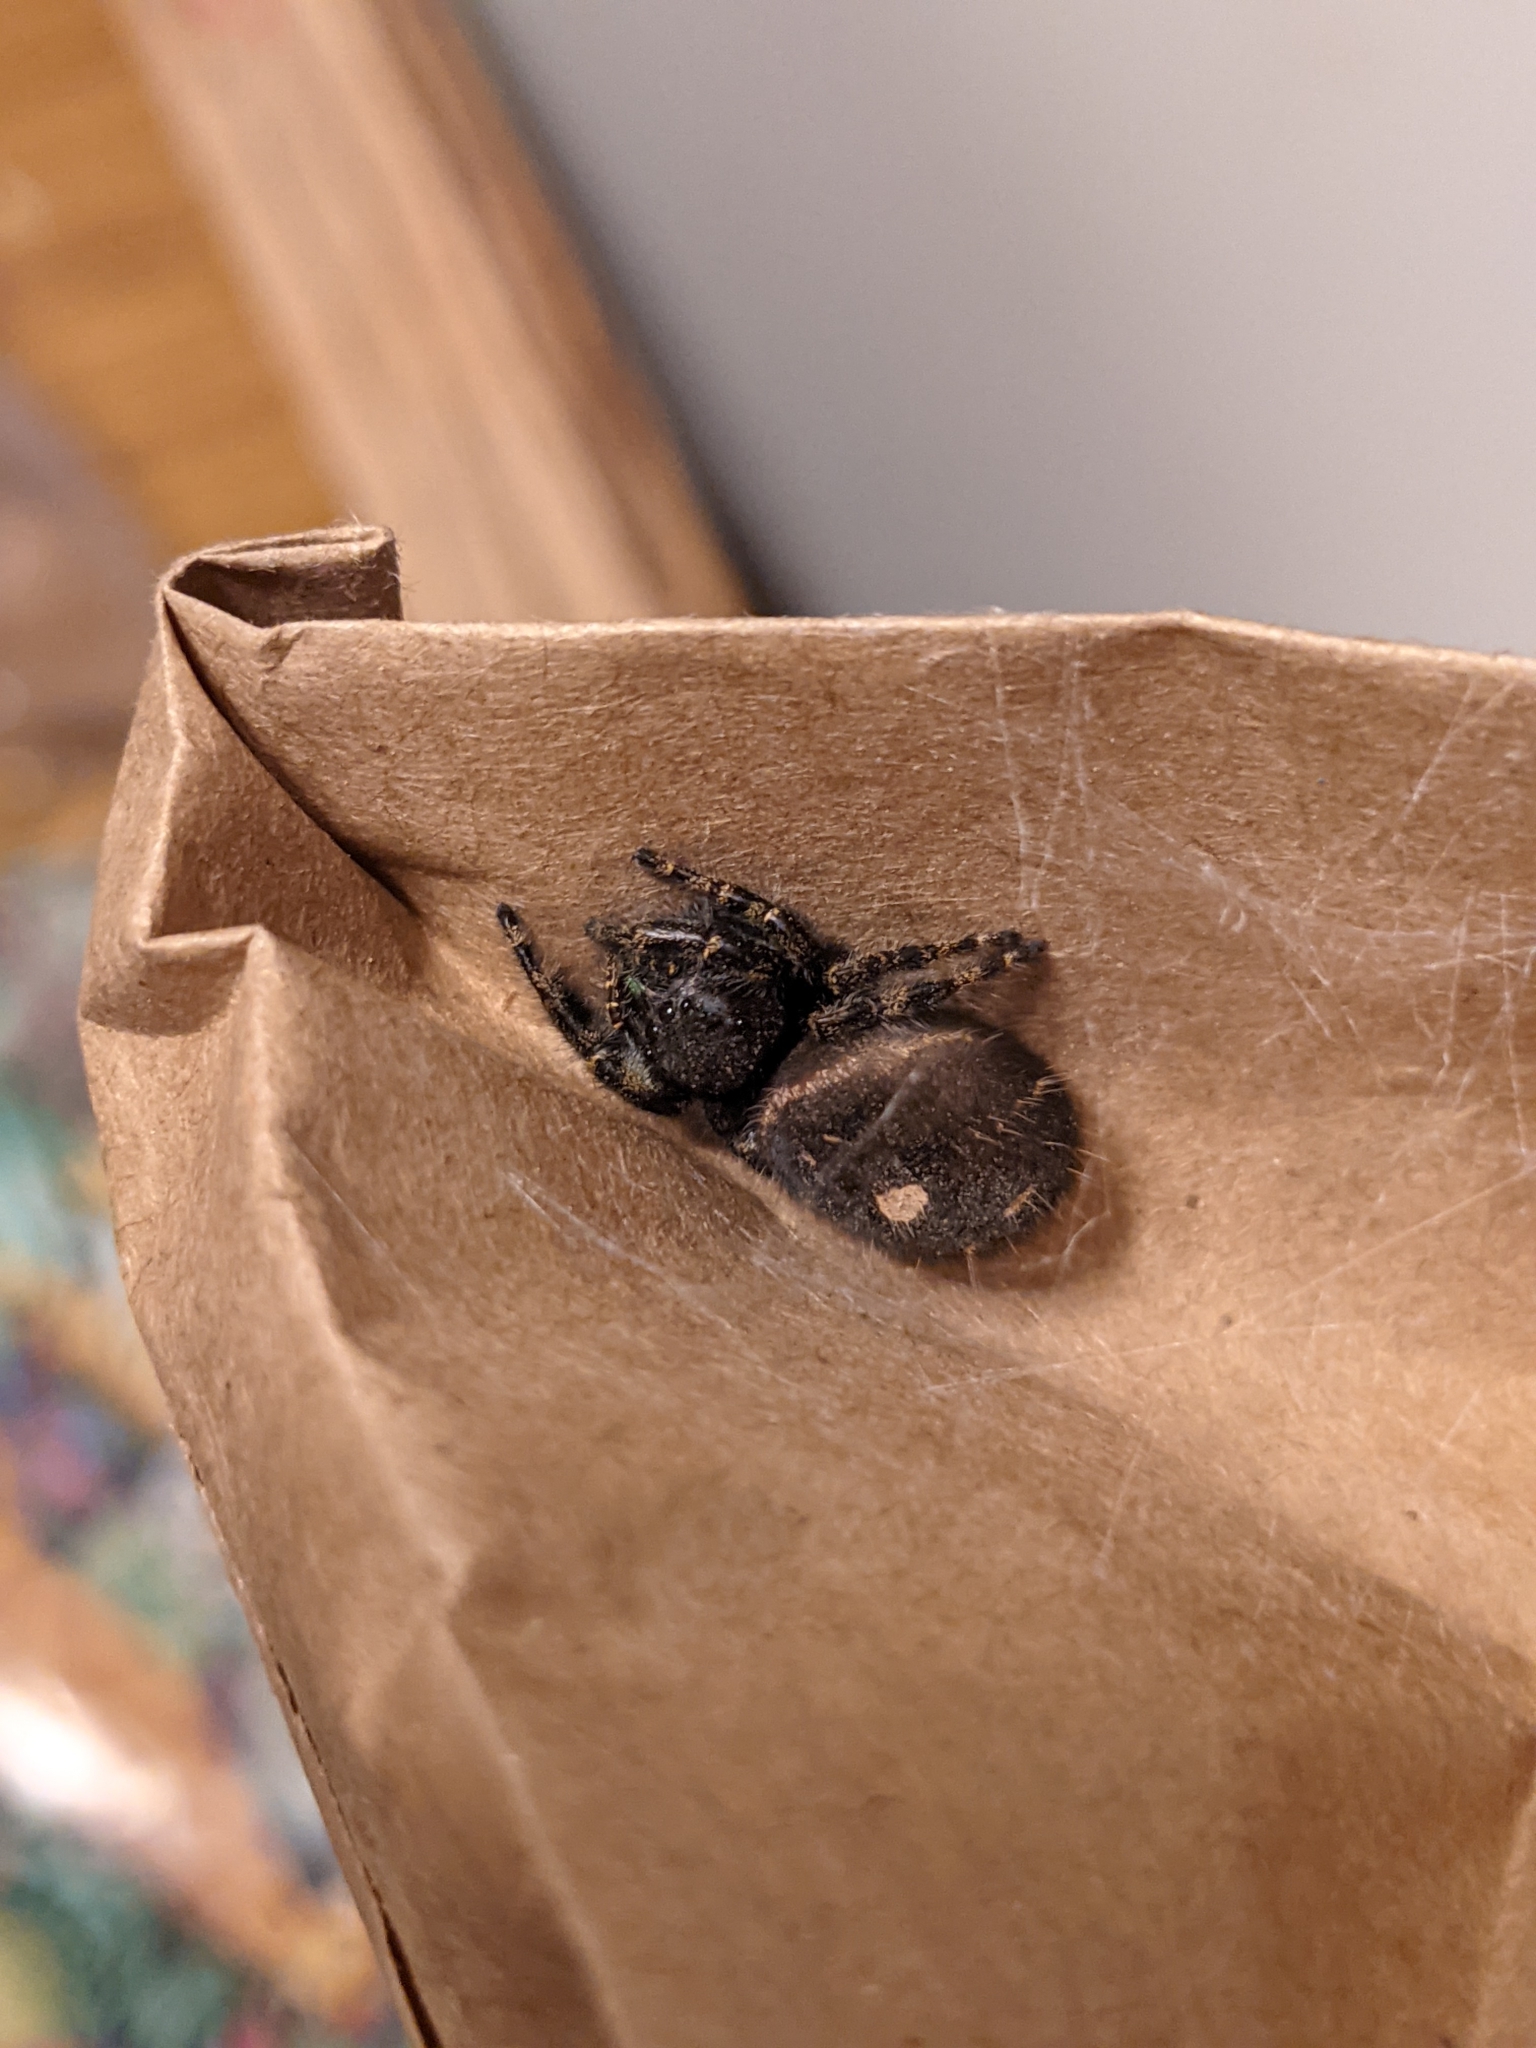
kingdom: Animalia
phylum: Arthropoda
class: Arachnida
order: Araneae
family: Salticidae
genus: Phidippus
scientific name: Phidippus audax
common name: Bold jumper
